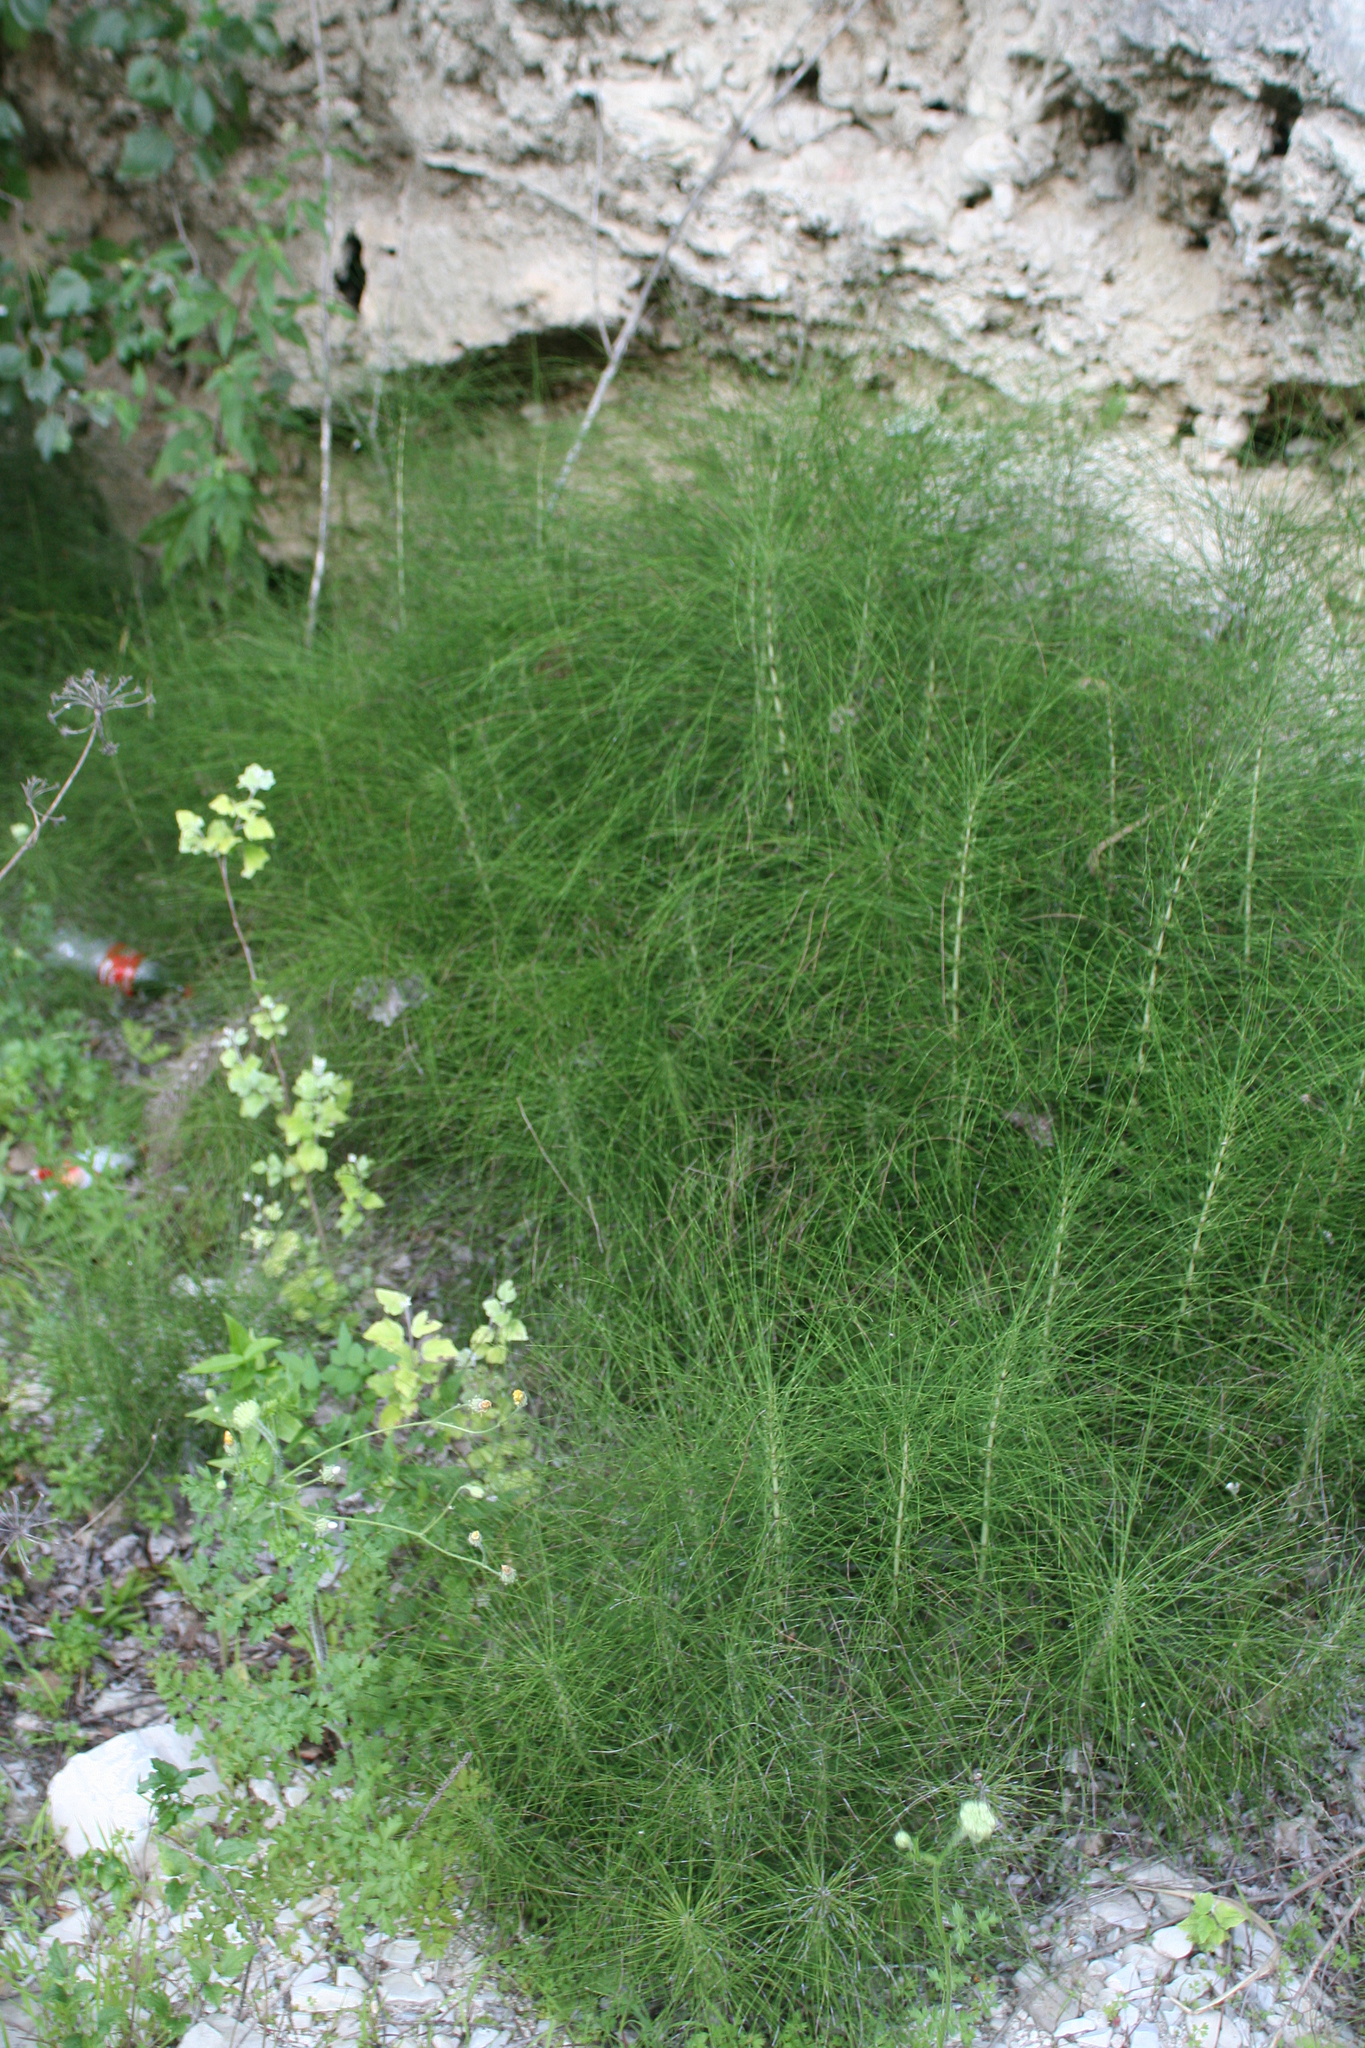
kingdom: Plantae
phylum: Tracheophyta
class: Polypodiopsida
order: Equisetales
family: Equisetaceae
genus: Equisetum
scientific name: Equisetum telmateia
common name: Great horsetail
